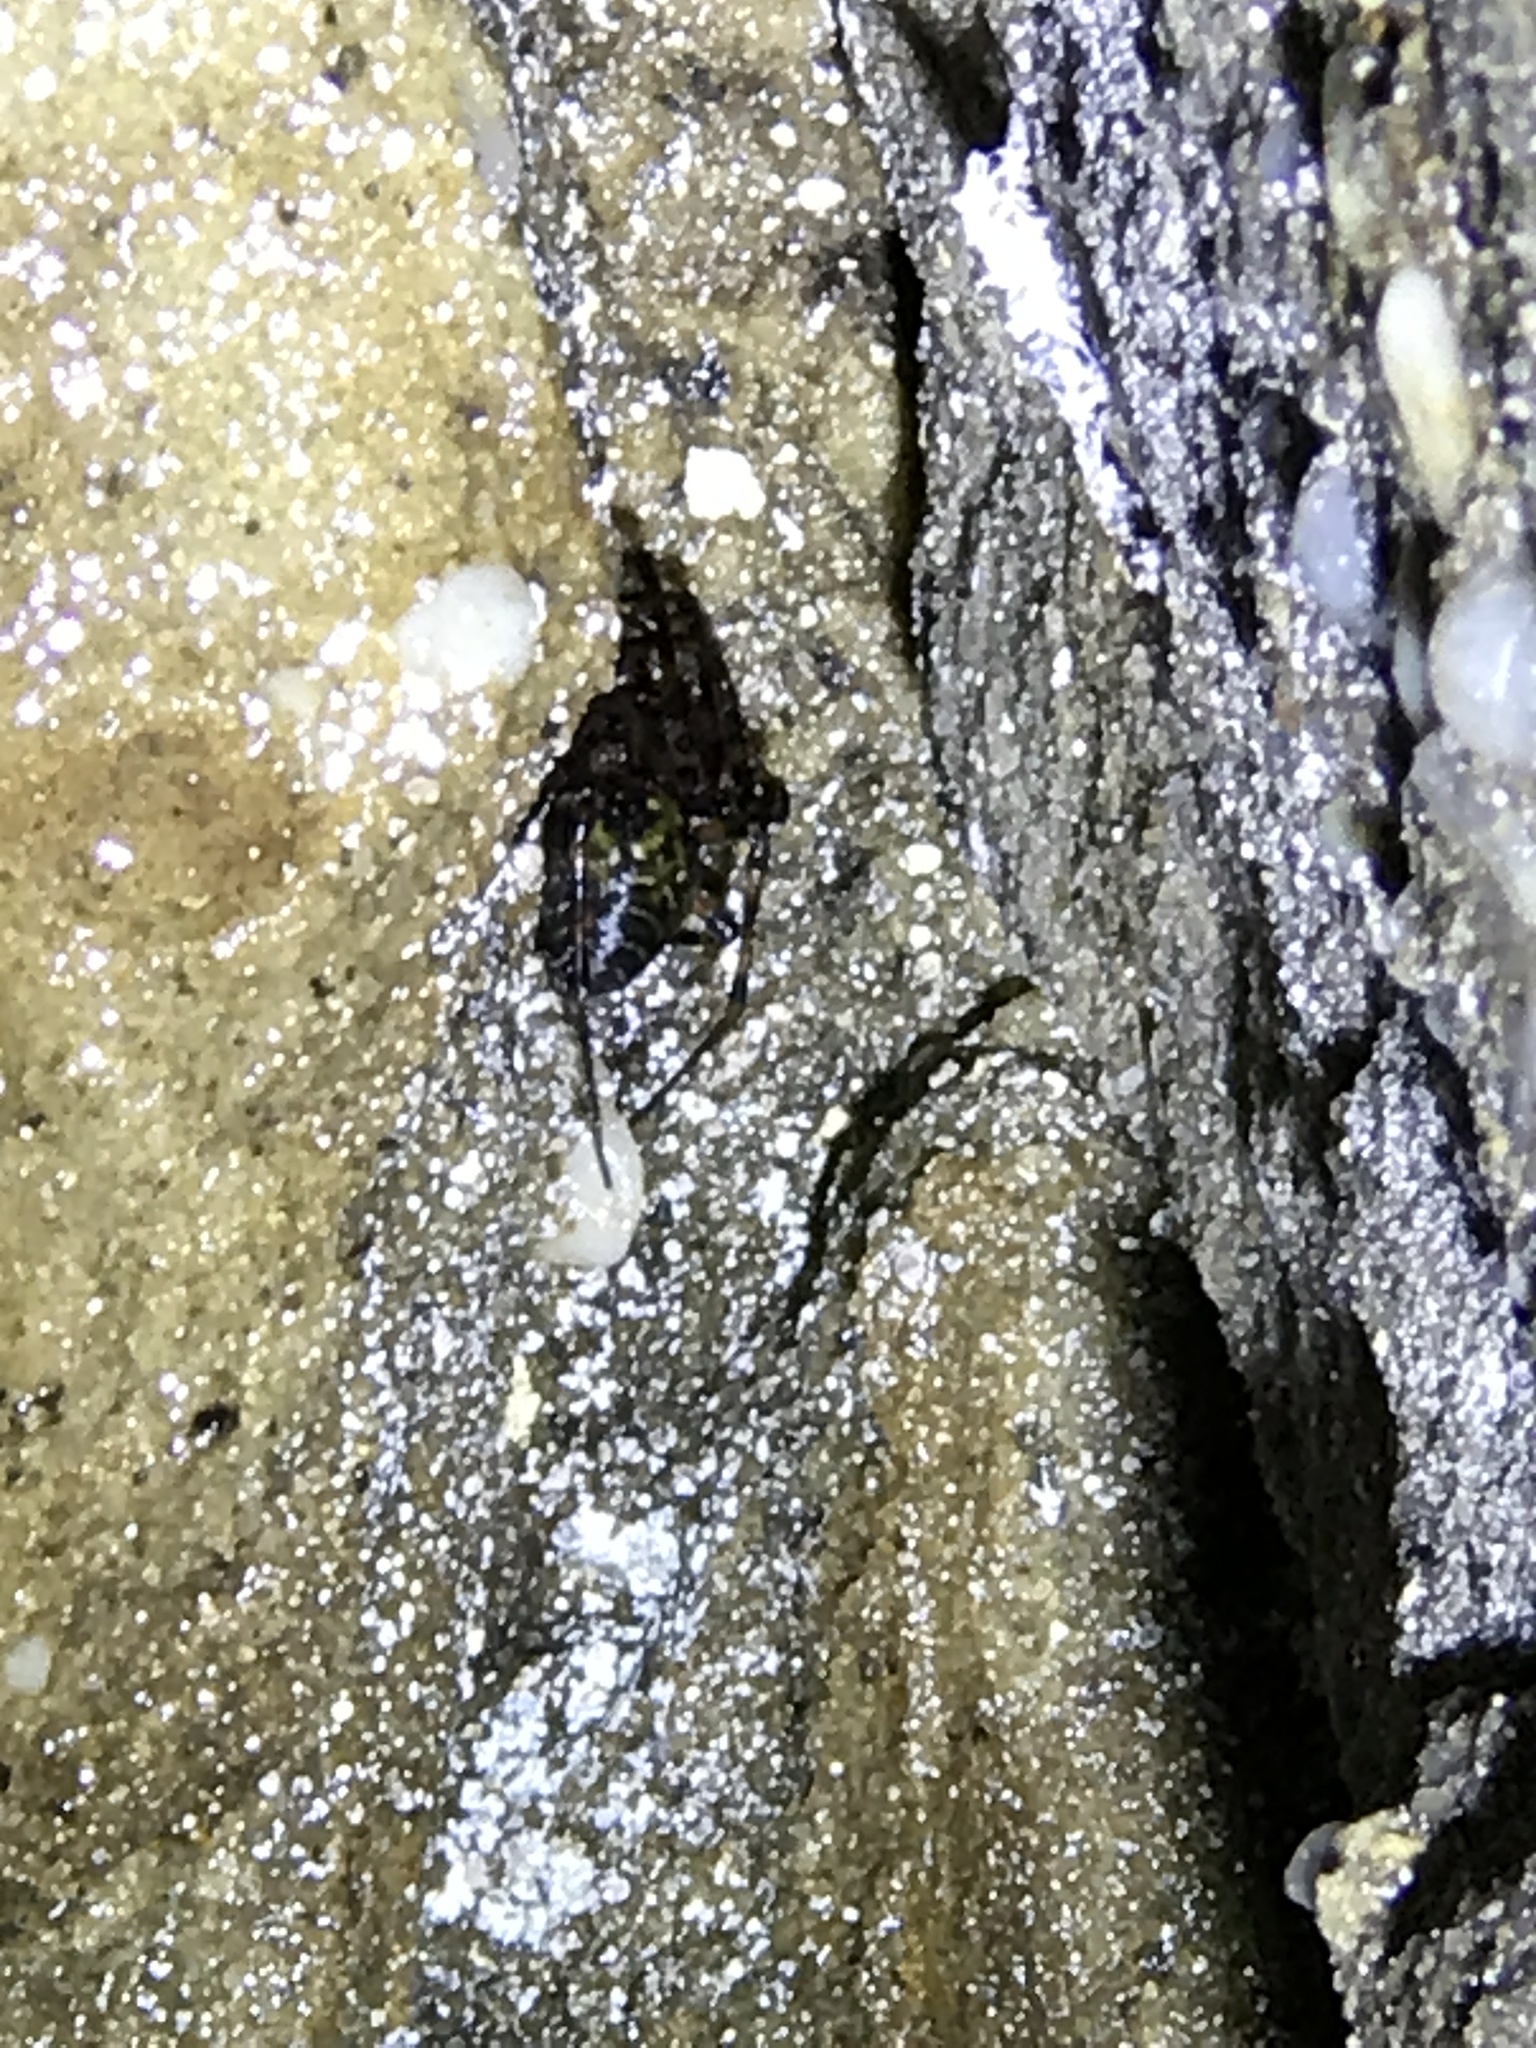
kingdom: Animalia
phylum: Arthropoda
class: Arachnida
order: Araneae
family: Tetragnathidae
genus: Meta
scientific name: Meta ovalis
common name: Eastern cave long-jawed spider
